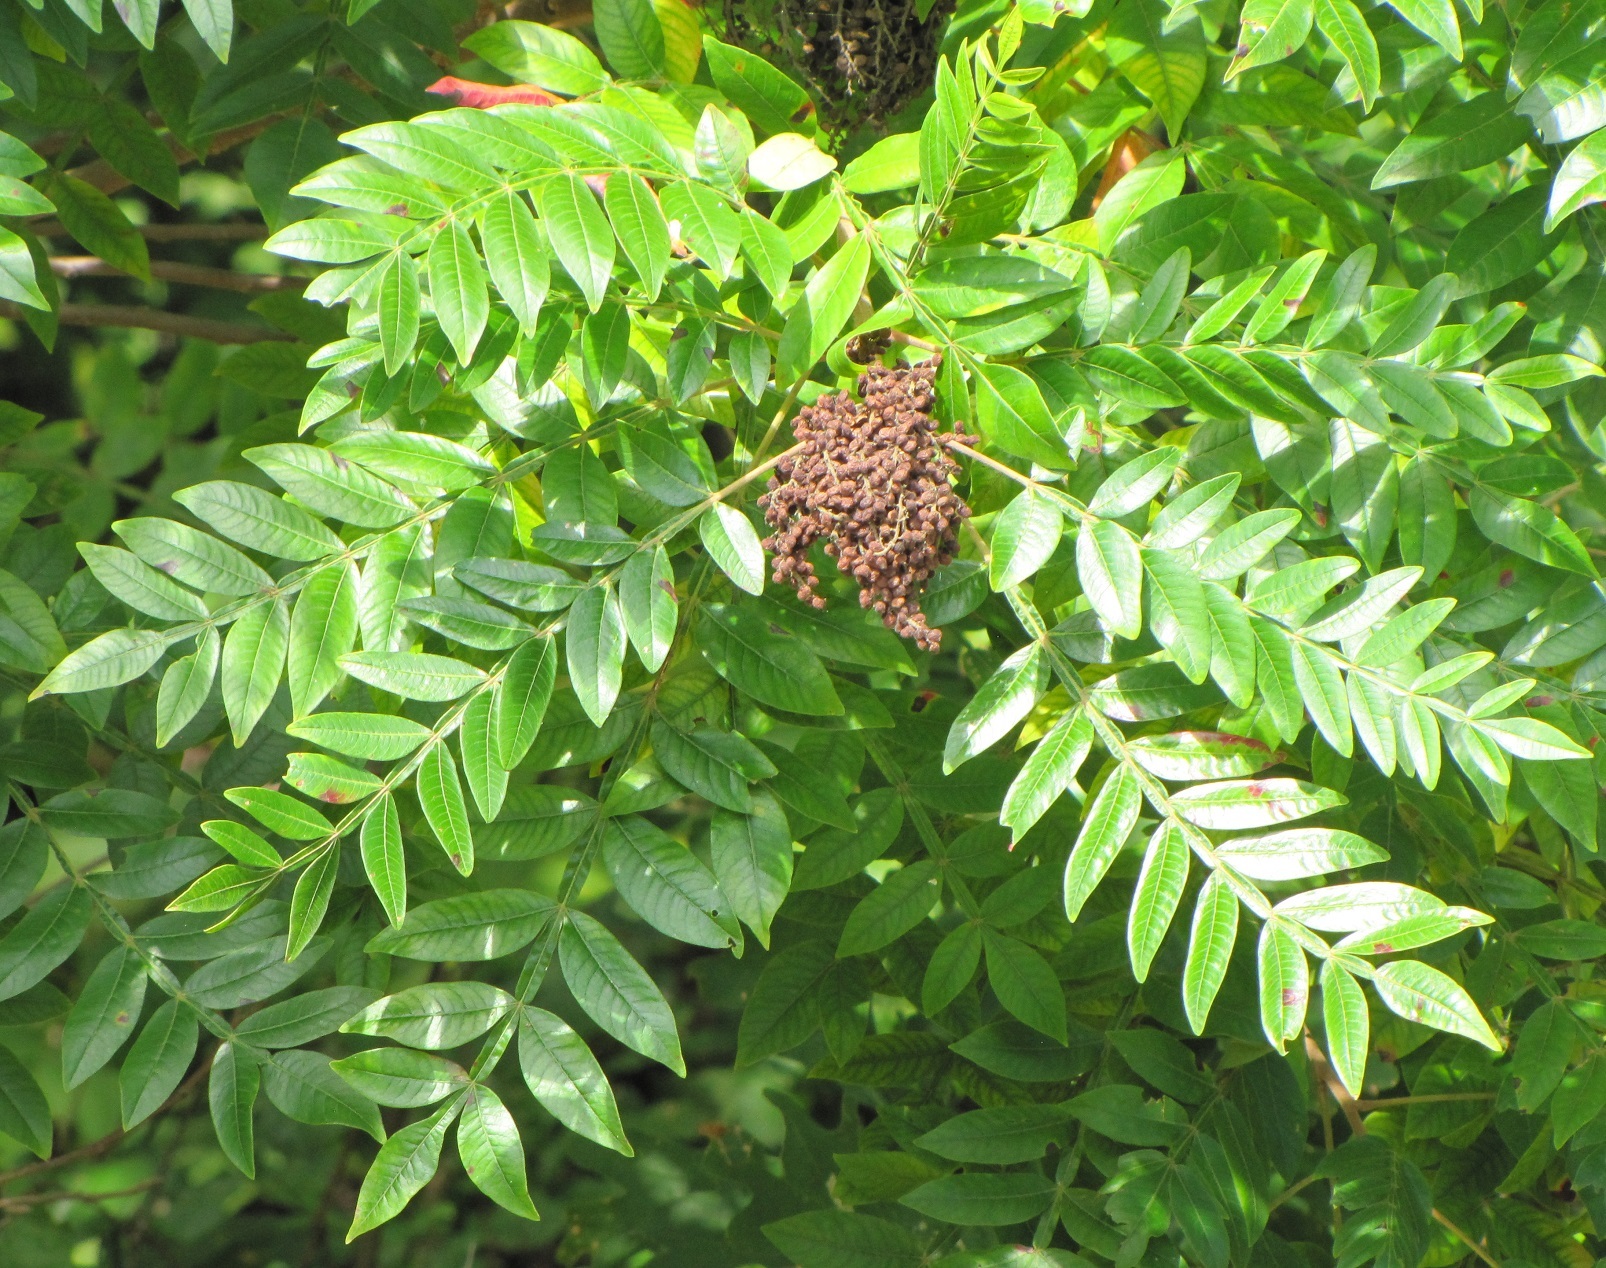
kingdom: Plantae
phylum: Tracheophyta
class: Magnoliopsida
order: Sapindales
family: Anacardiaceae
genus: Rhus
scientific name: Rhus copallina
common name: Shining sumac
